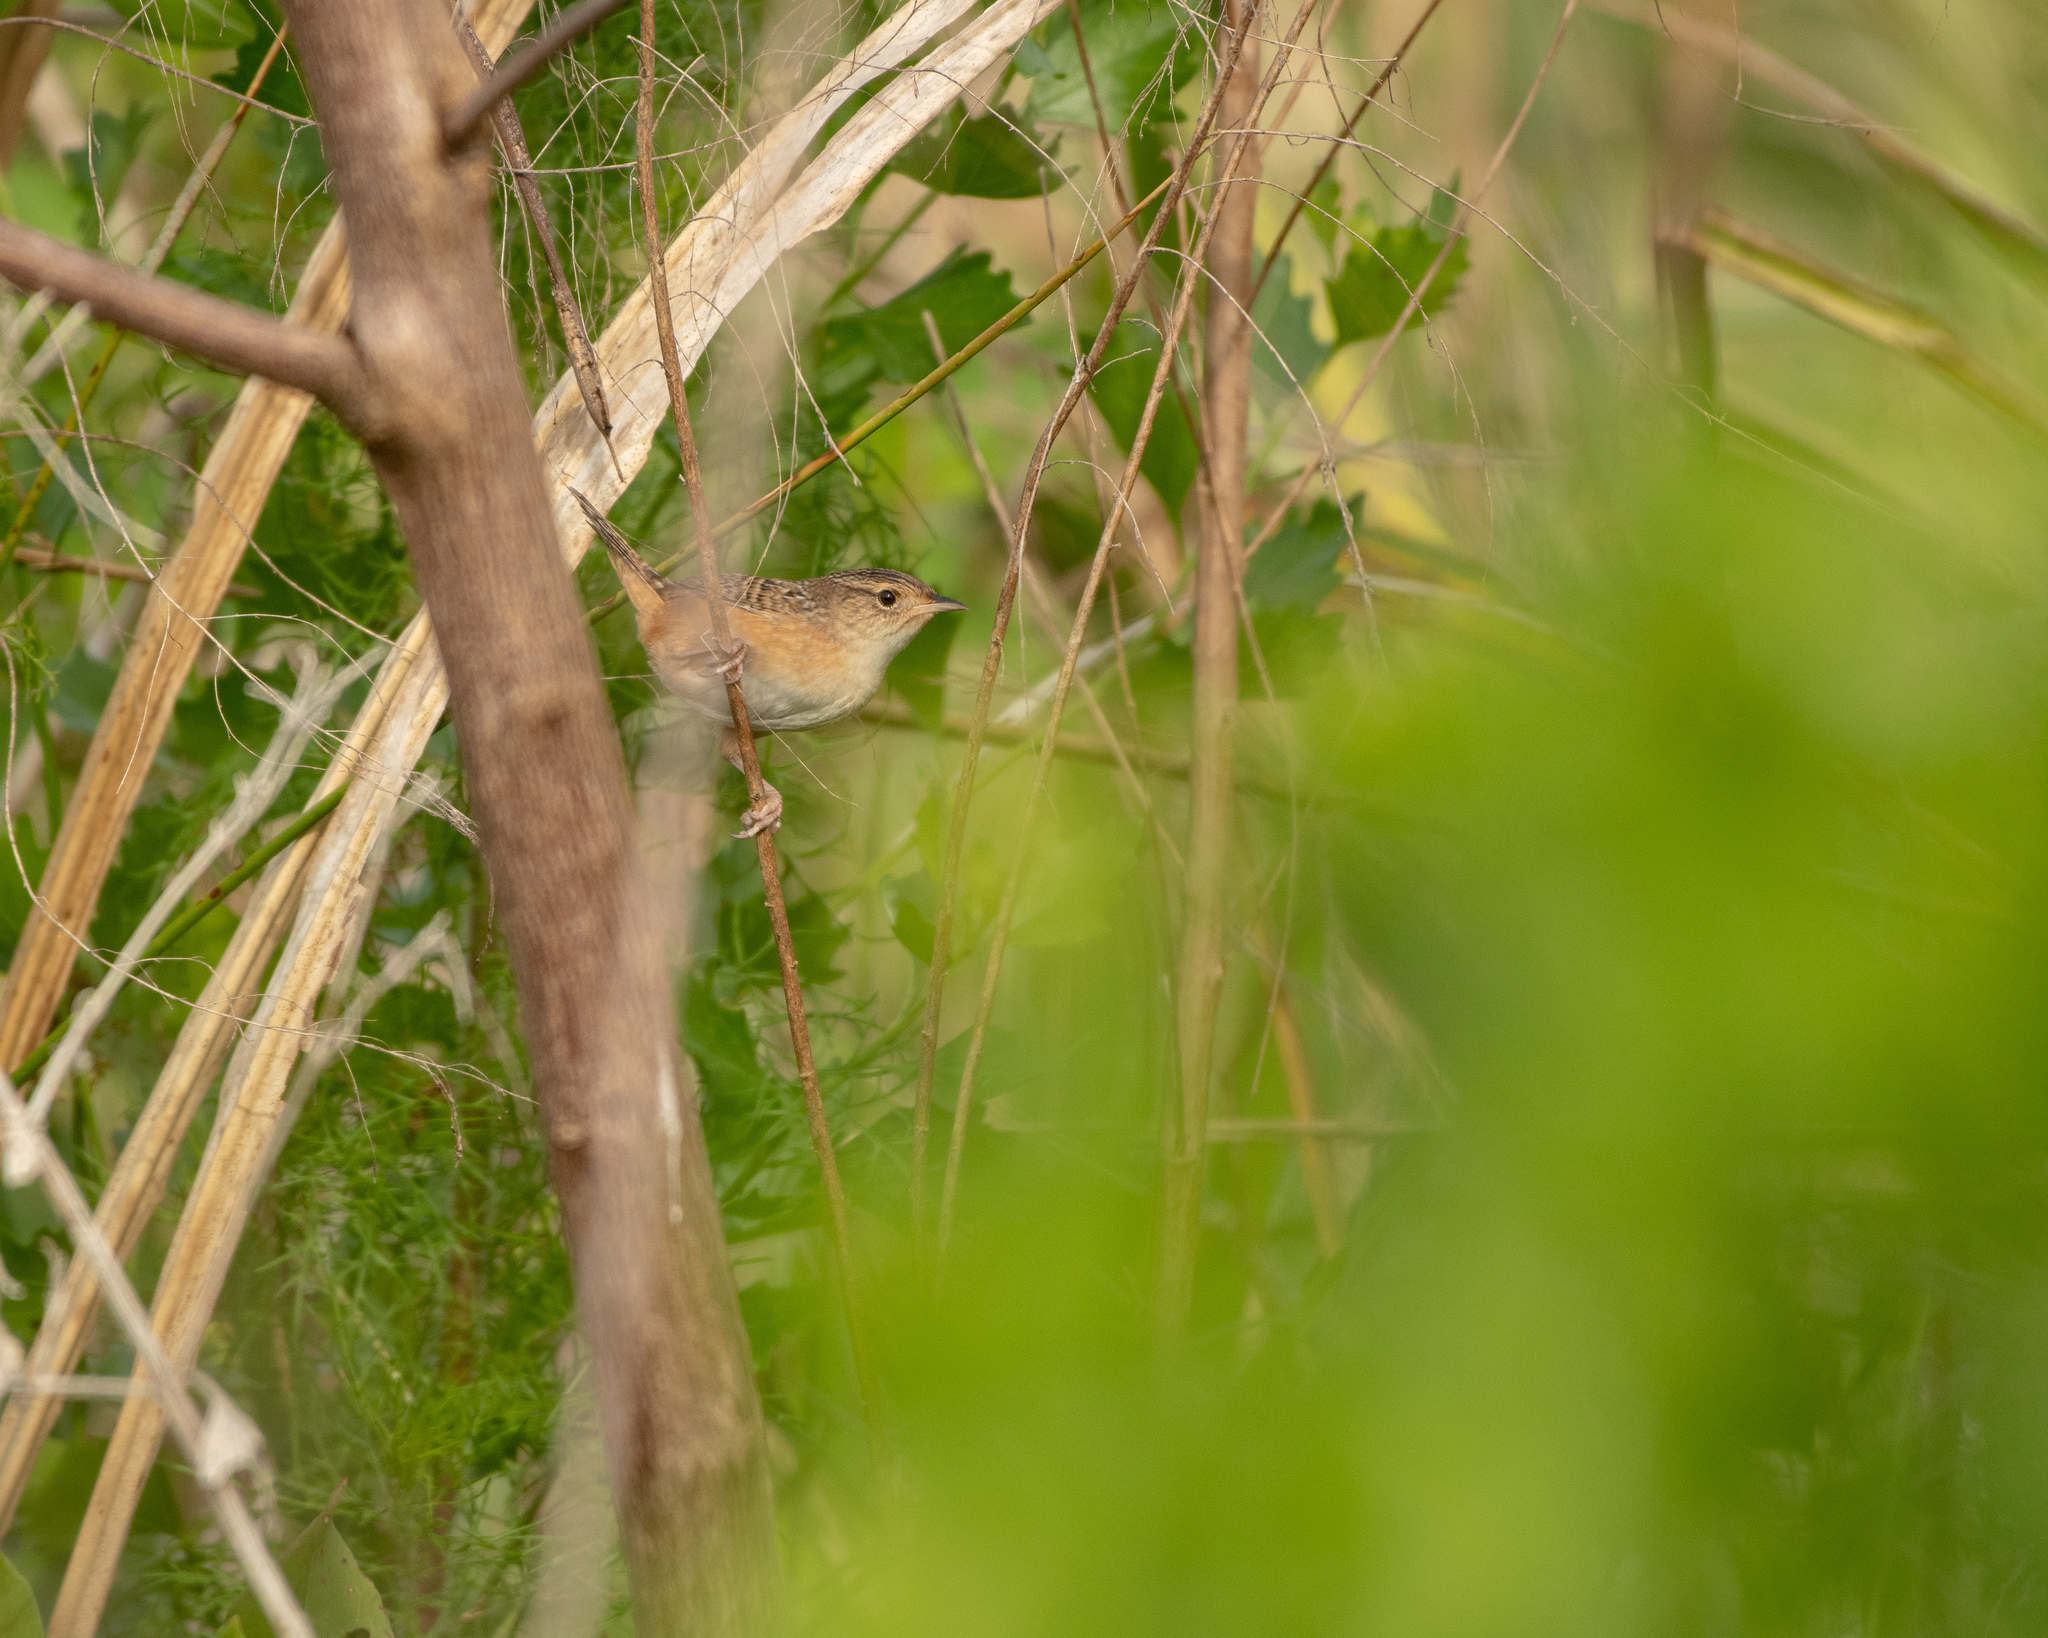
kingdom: Animalia
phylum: Chordata
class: Aves
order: Passeriformes
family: Troglodytidae
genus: Cistothorus
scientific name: Cistothorus platensis
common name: Sedge wren
